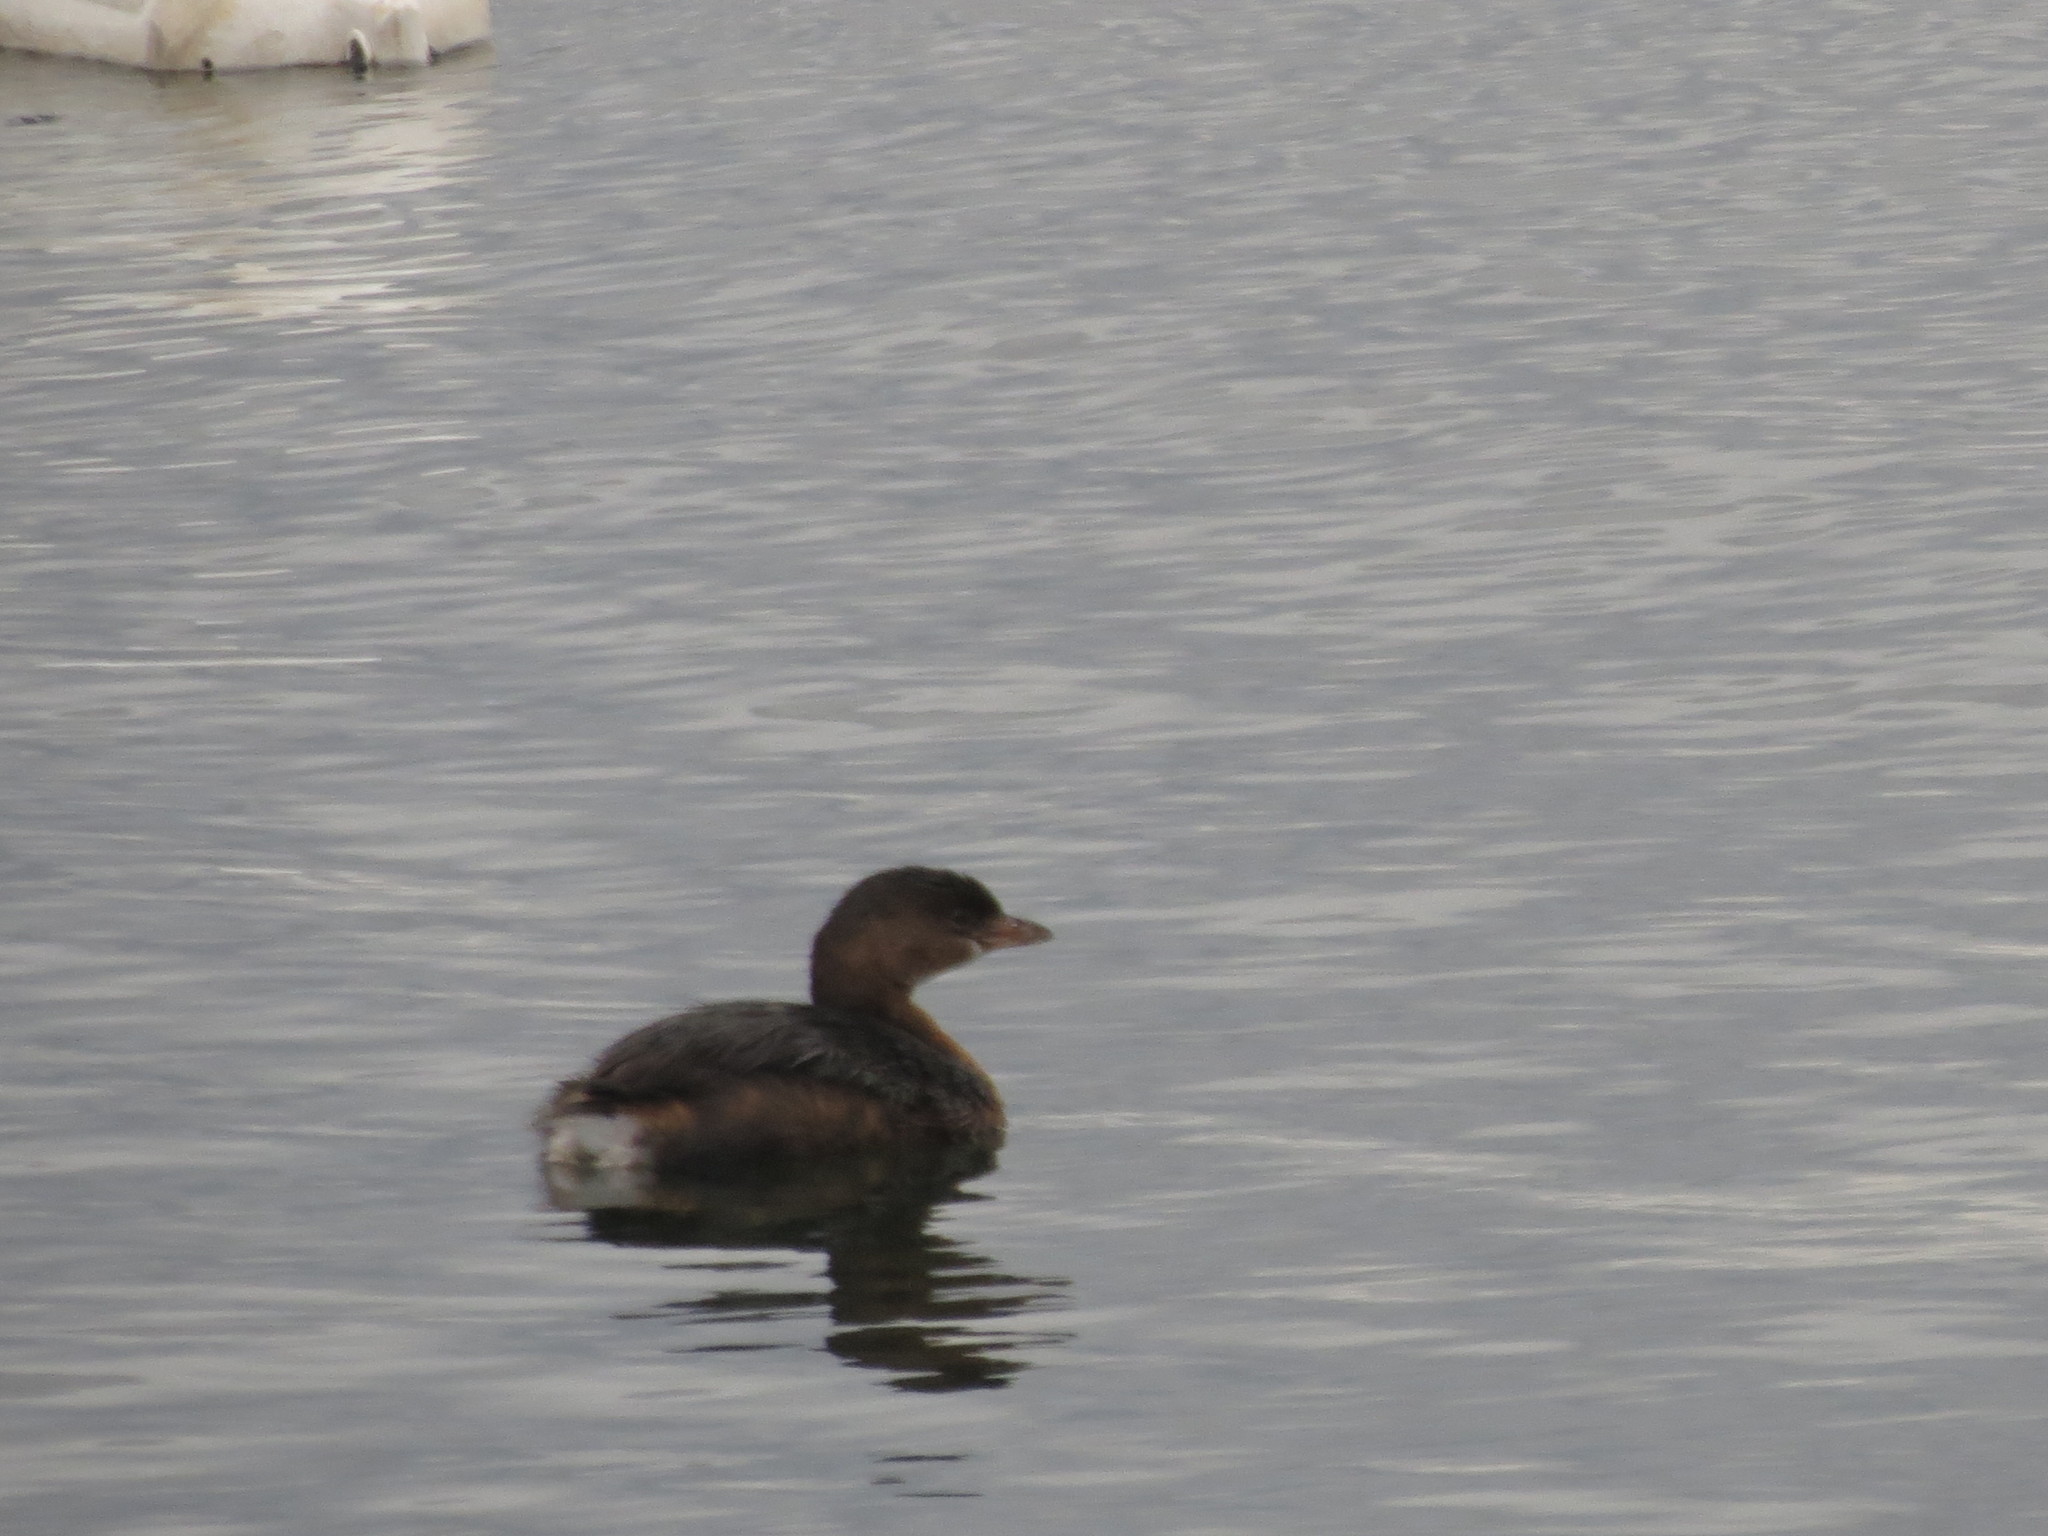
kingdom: Animalia
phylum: Chordata
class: Aves
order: Podicipediformes
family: Podicipedidae
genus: Podilymbus
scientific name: Podilymbus podiceps
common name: Pied-billed grebe
